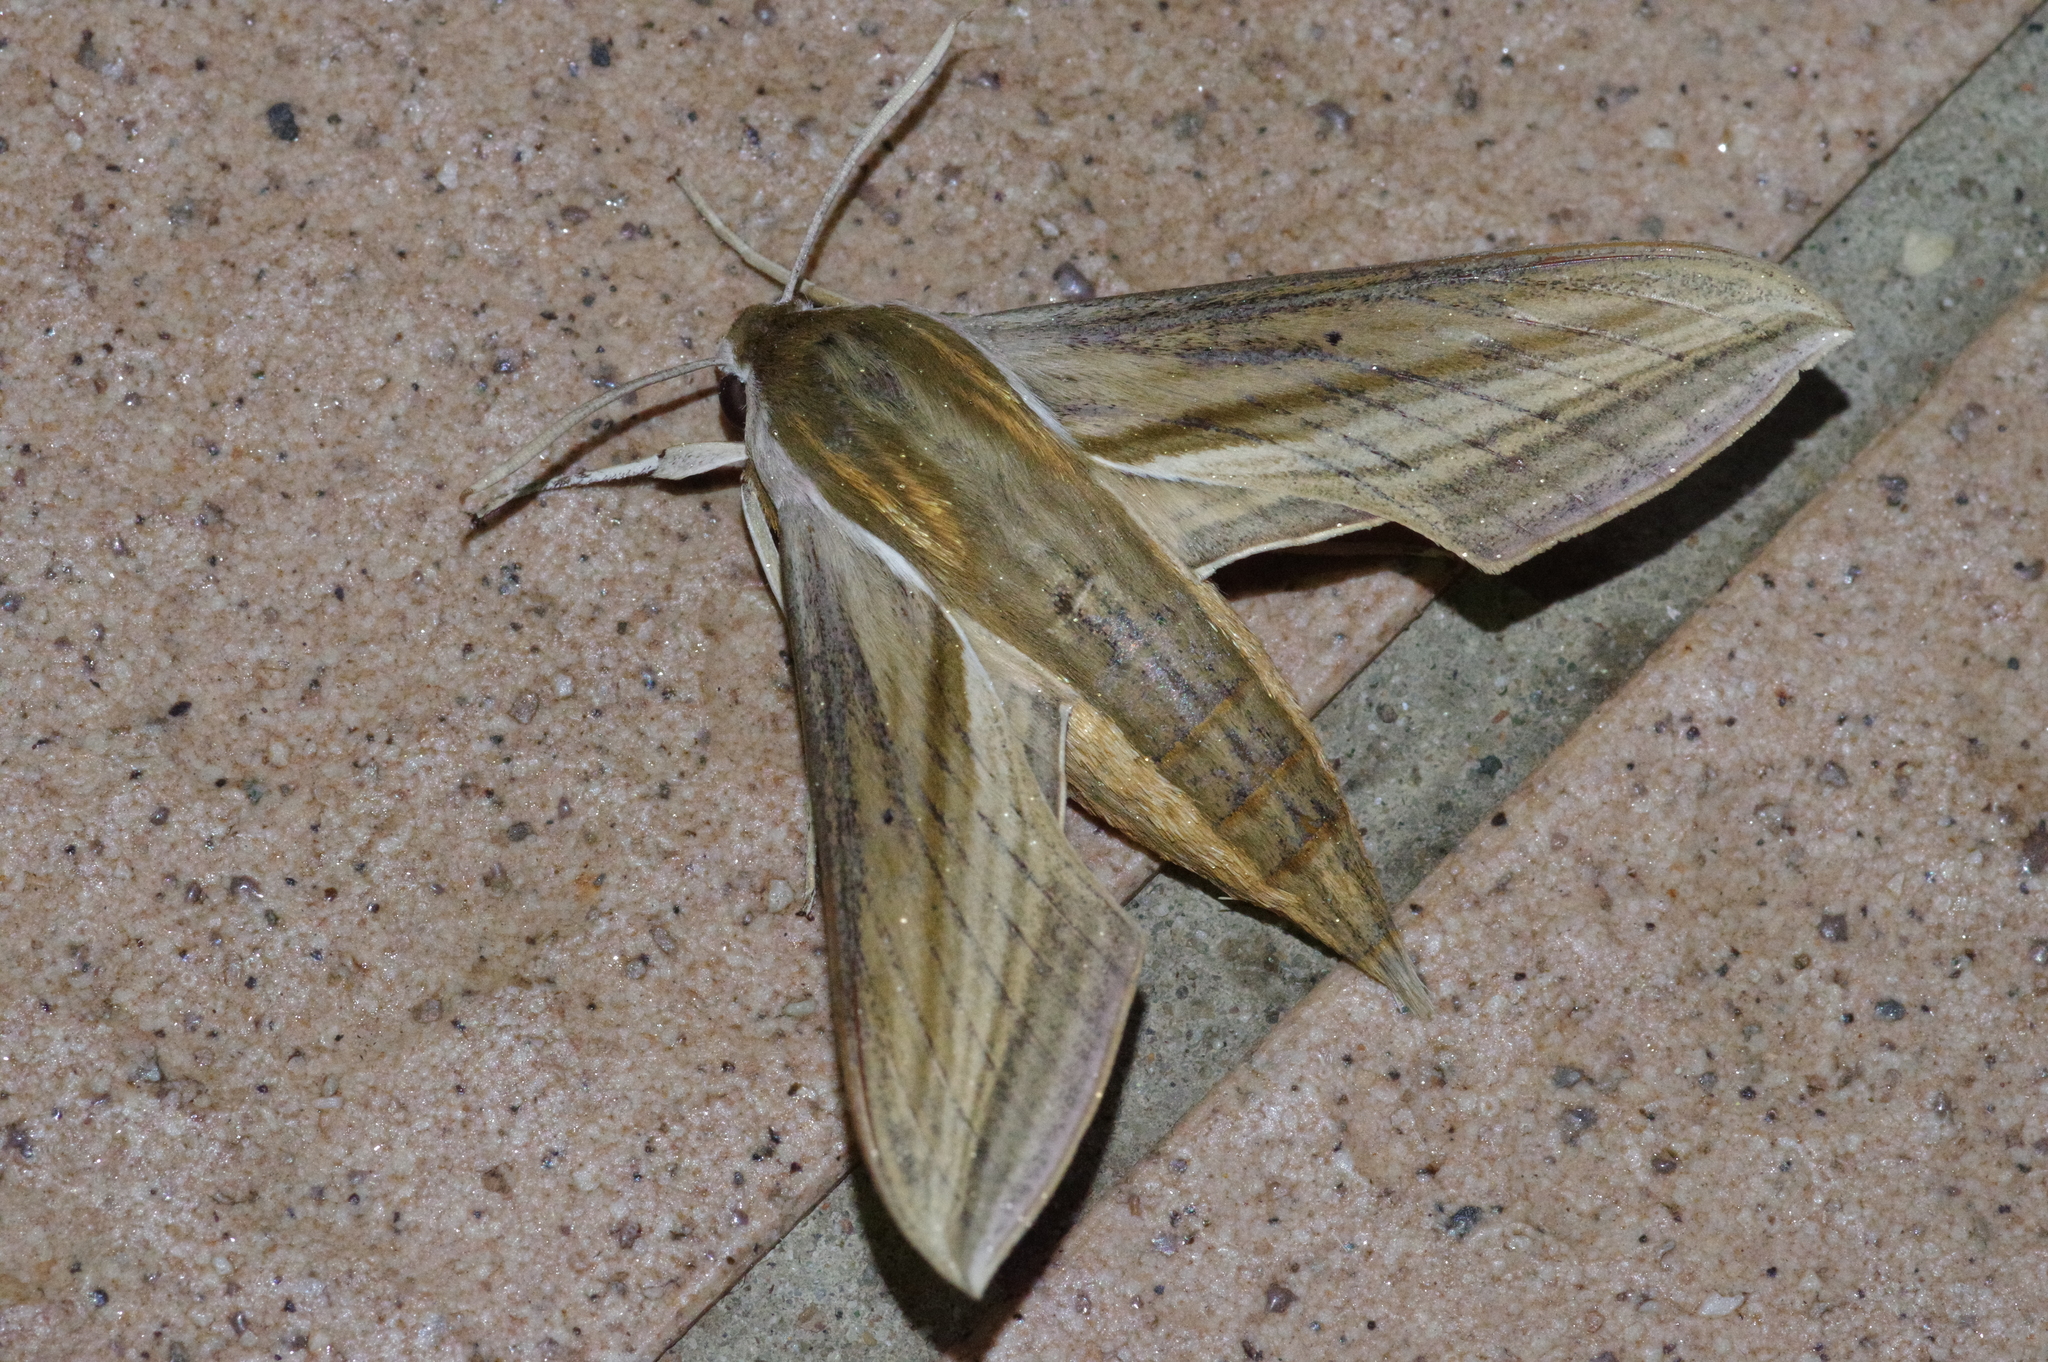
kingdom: Animalia
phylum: Arthropoda
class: Insecta
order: Lepidoptera
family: Sphingidae
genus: Theretra
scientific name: Theretra japonica
